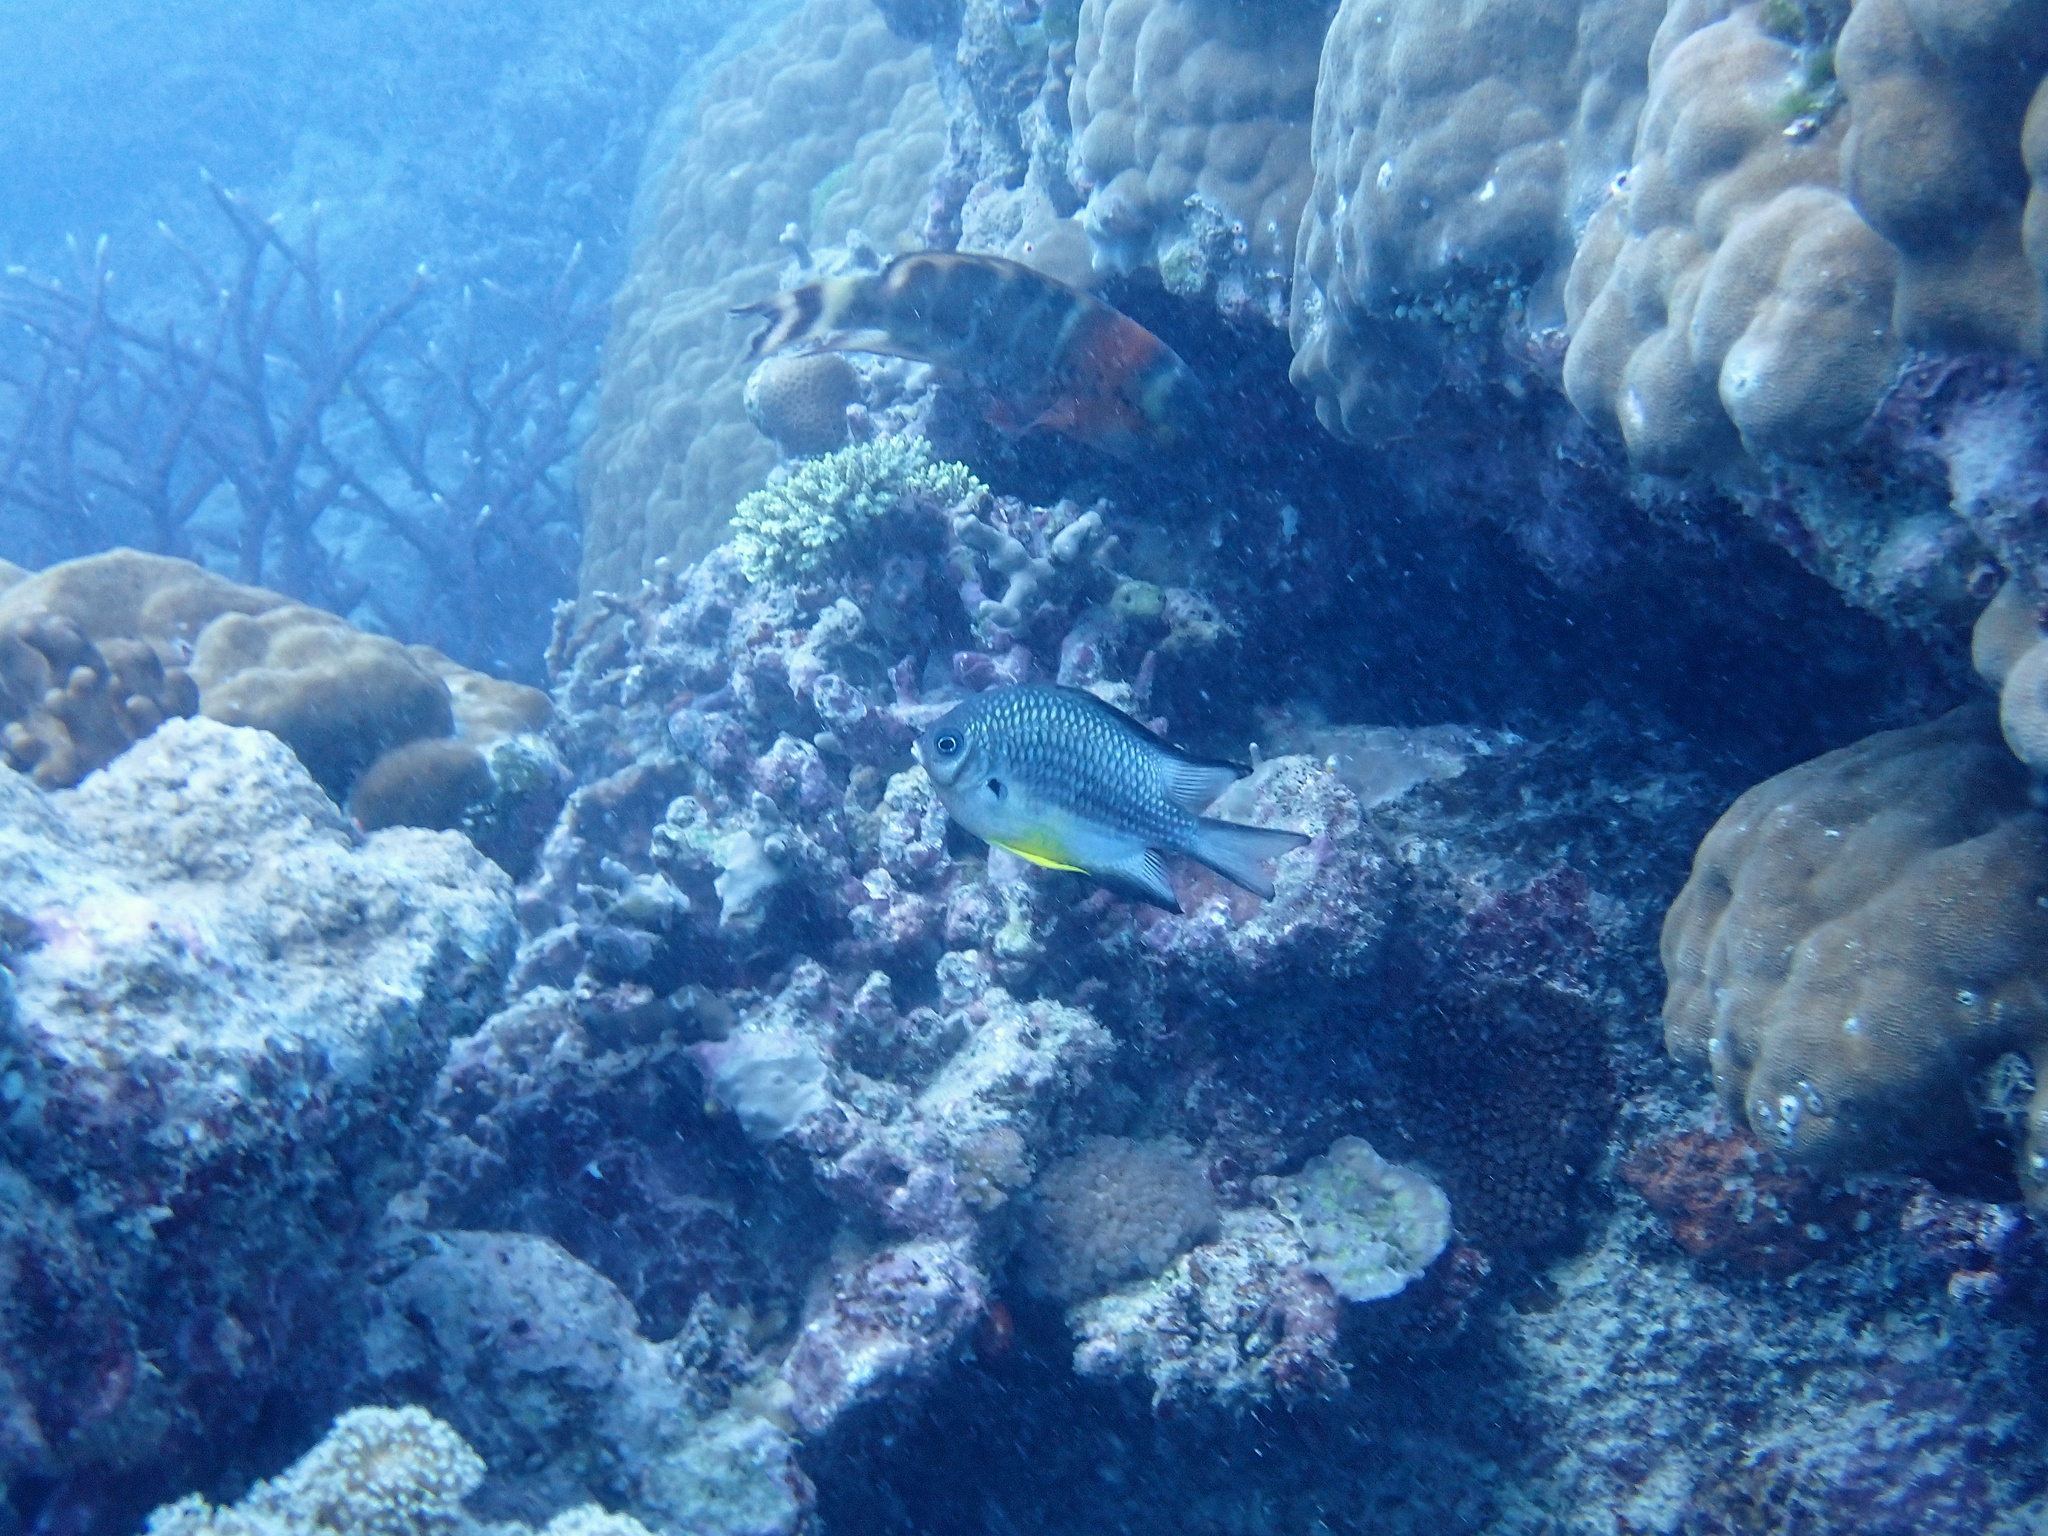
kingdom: Animalia
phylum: Chordata
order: Perciformes
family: Pomacentridae
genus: Amblyglyphidodon
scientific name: Amblyglyphidodon leucogaster
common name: White-belly damsel
